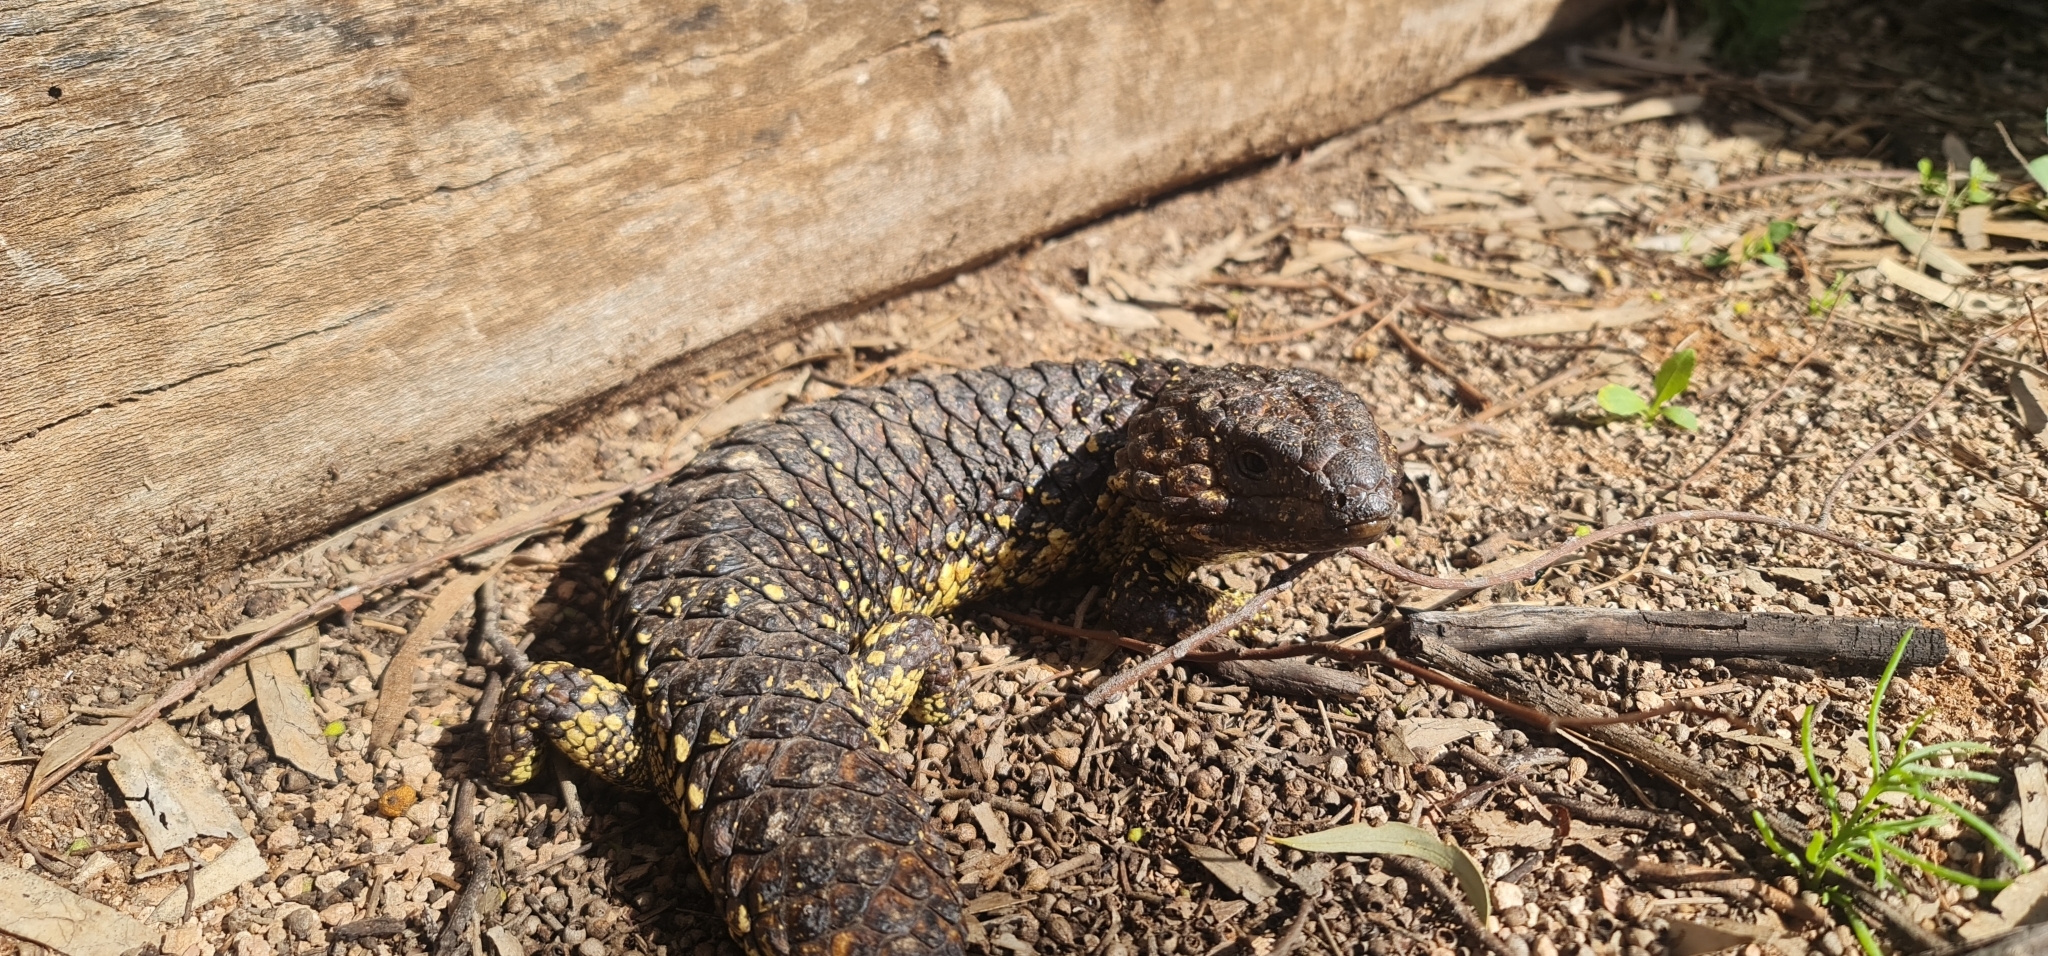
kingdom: Animalia
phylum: Chordata
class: Squamata
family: Scincidae
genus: Tiliqua
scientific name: Tiliqua rugosa
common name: Pinecone lizard
